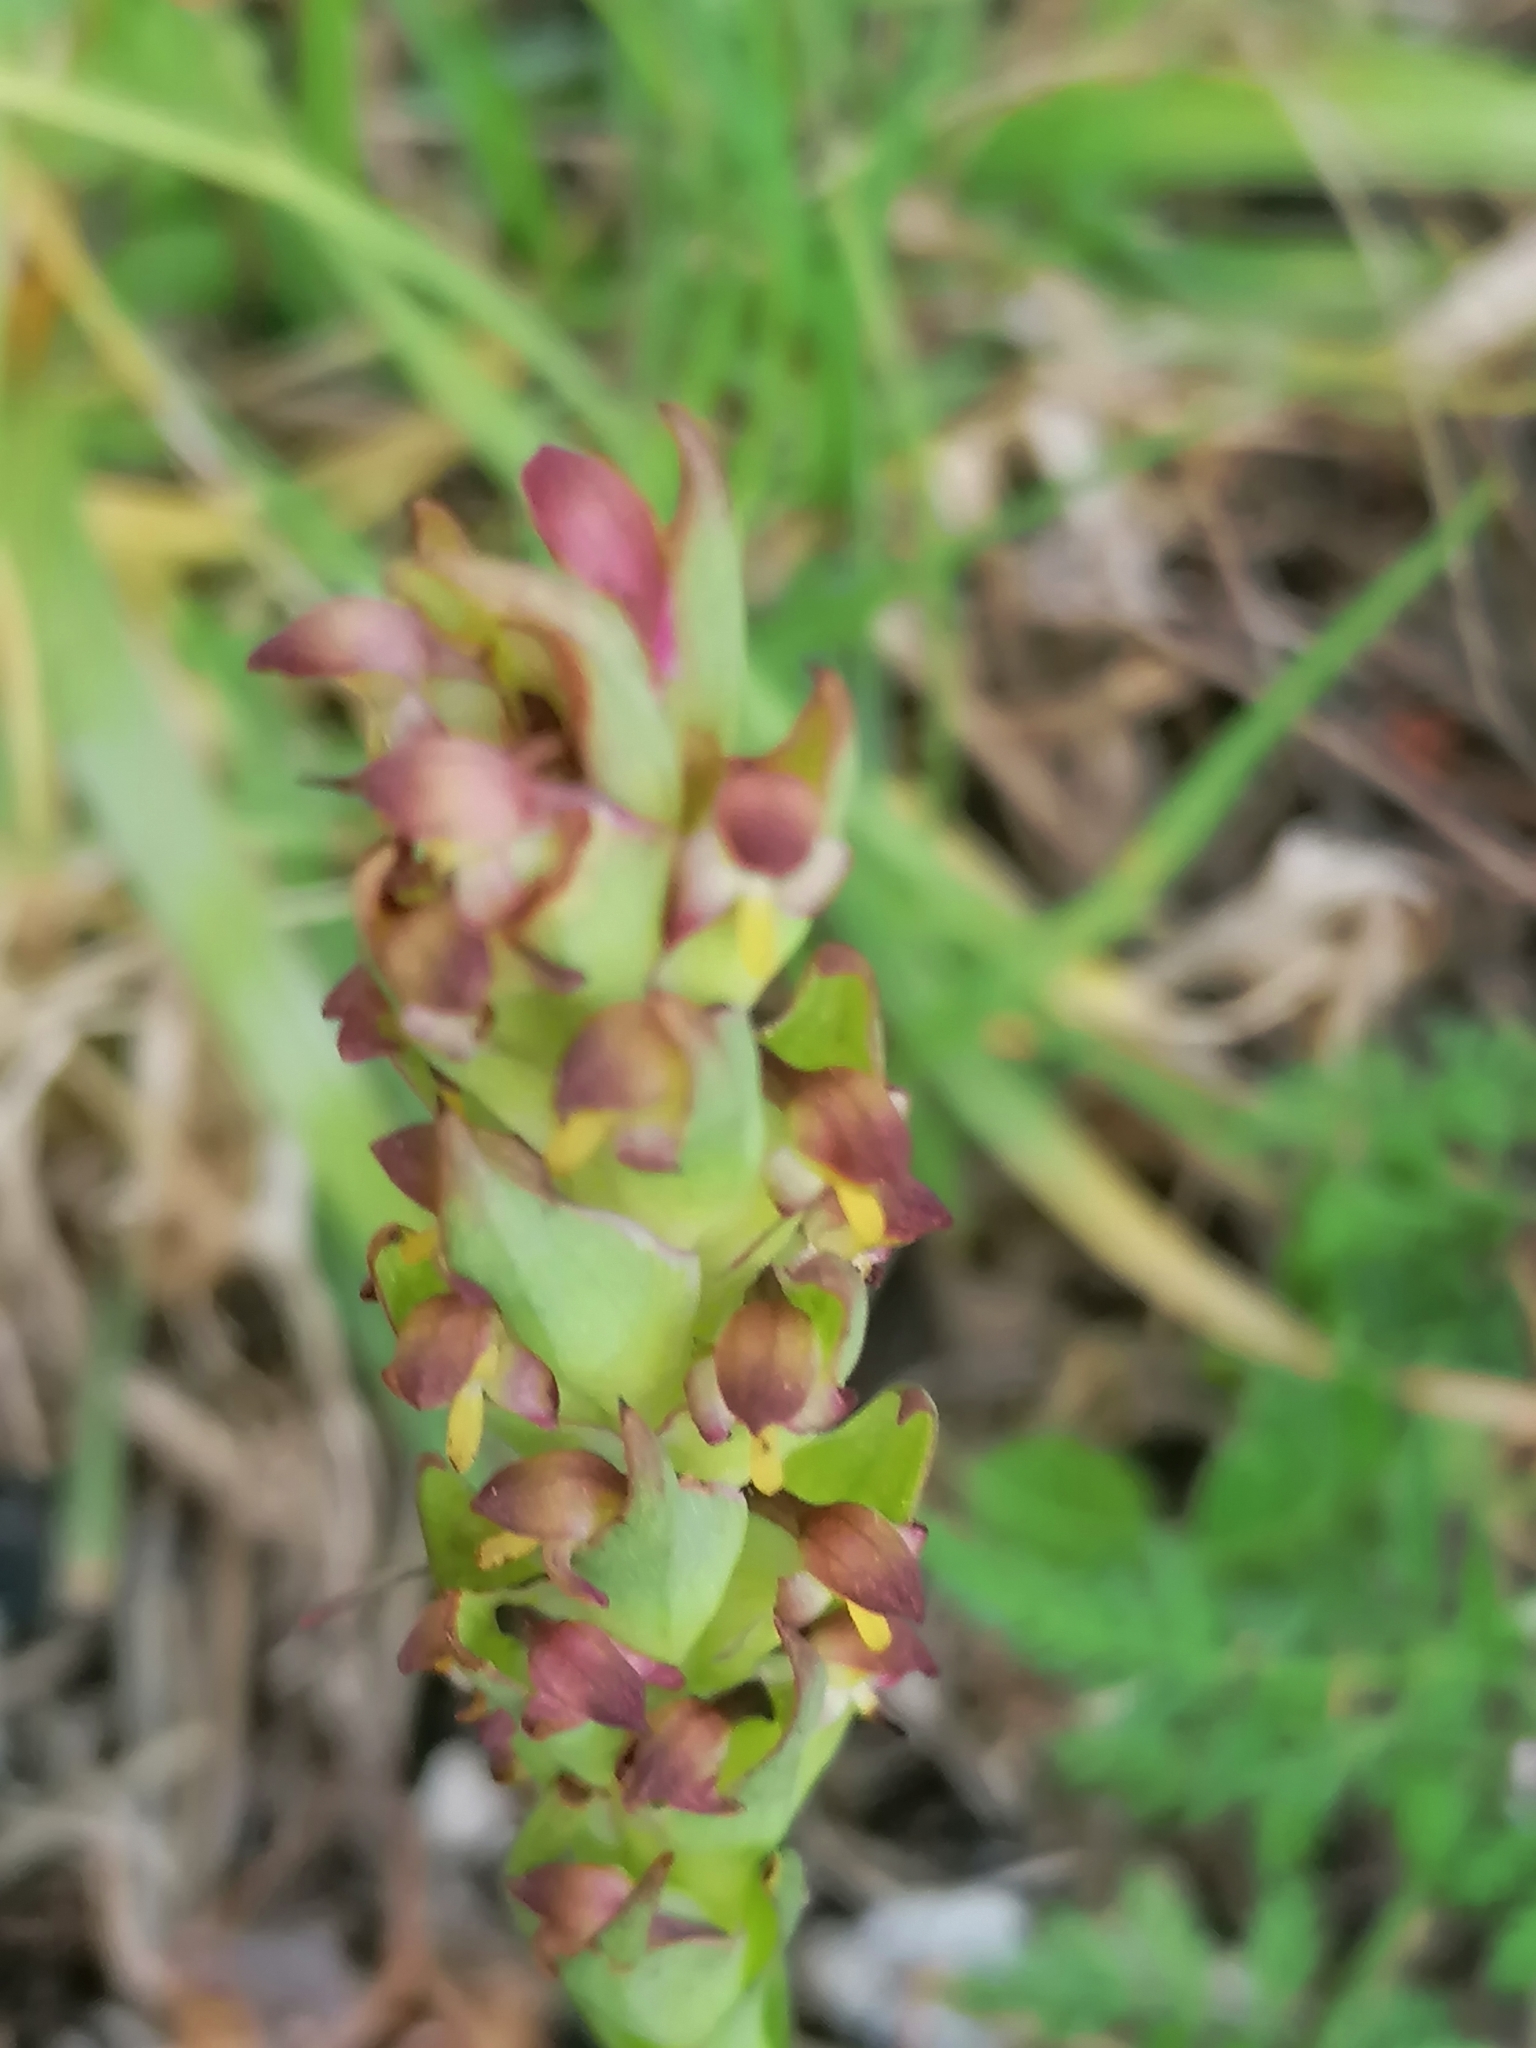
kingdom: Plantae
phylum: Tracheophyta
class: Liliopsida
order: Asparagales
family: Orchidaceae
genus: Disa
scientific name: Disa bracteata
